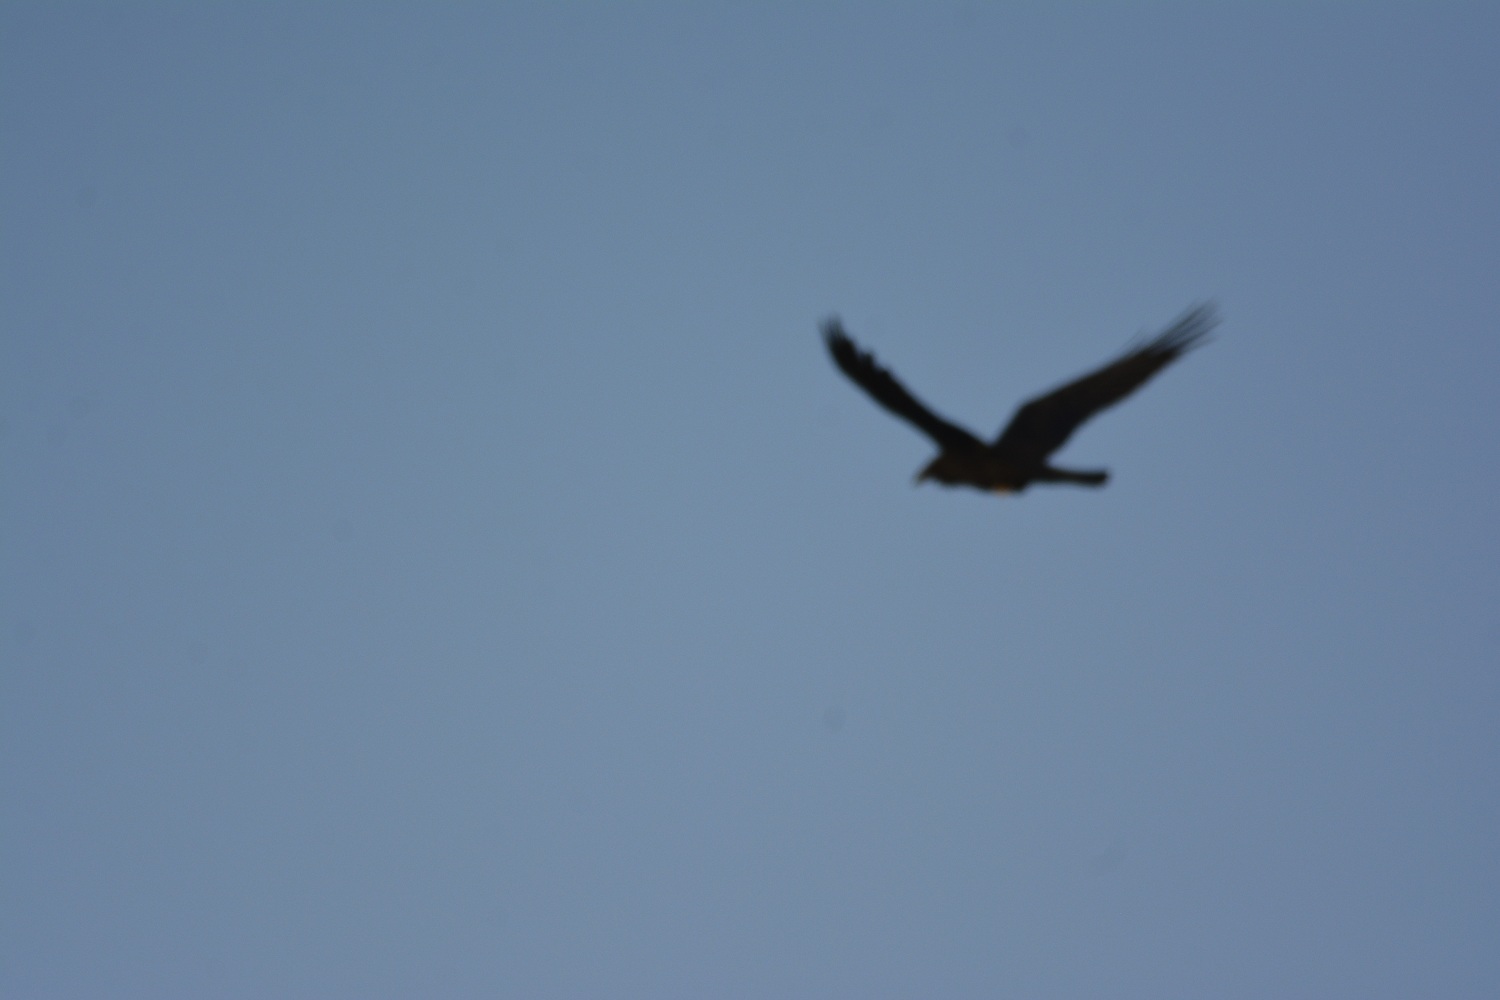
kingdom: Animalia
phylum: Chordata
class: Aves
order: Passeriformes
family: Corvidae
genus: Corvus
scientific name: Corvus ruficollis
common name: Brown-necked raven
